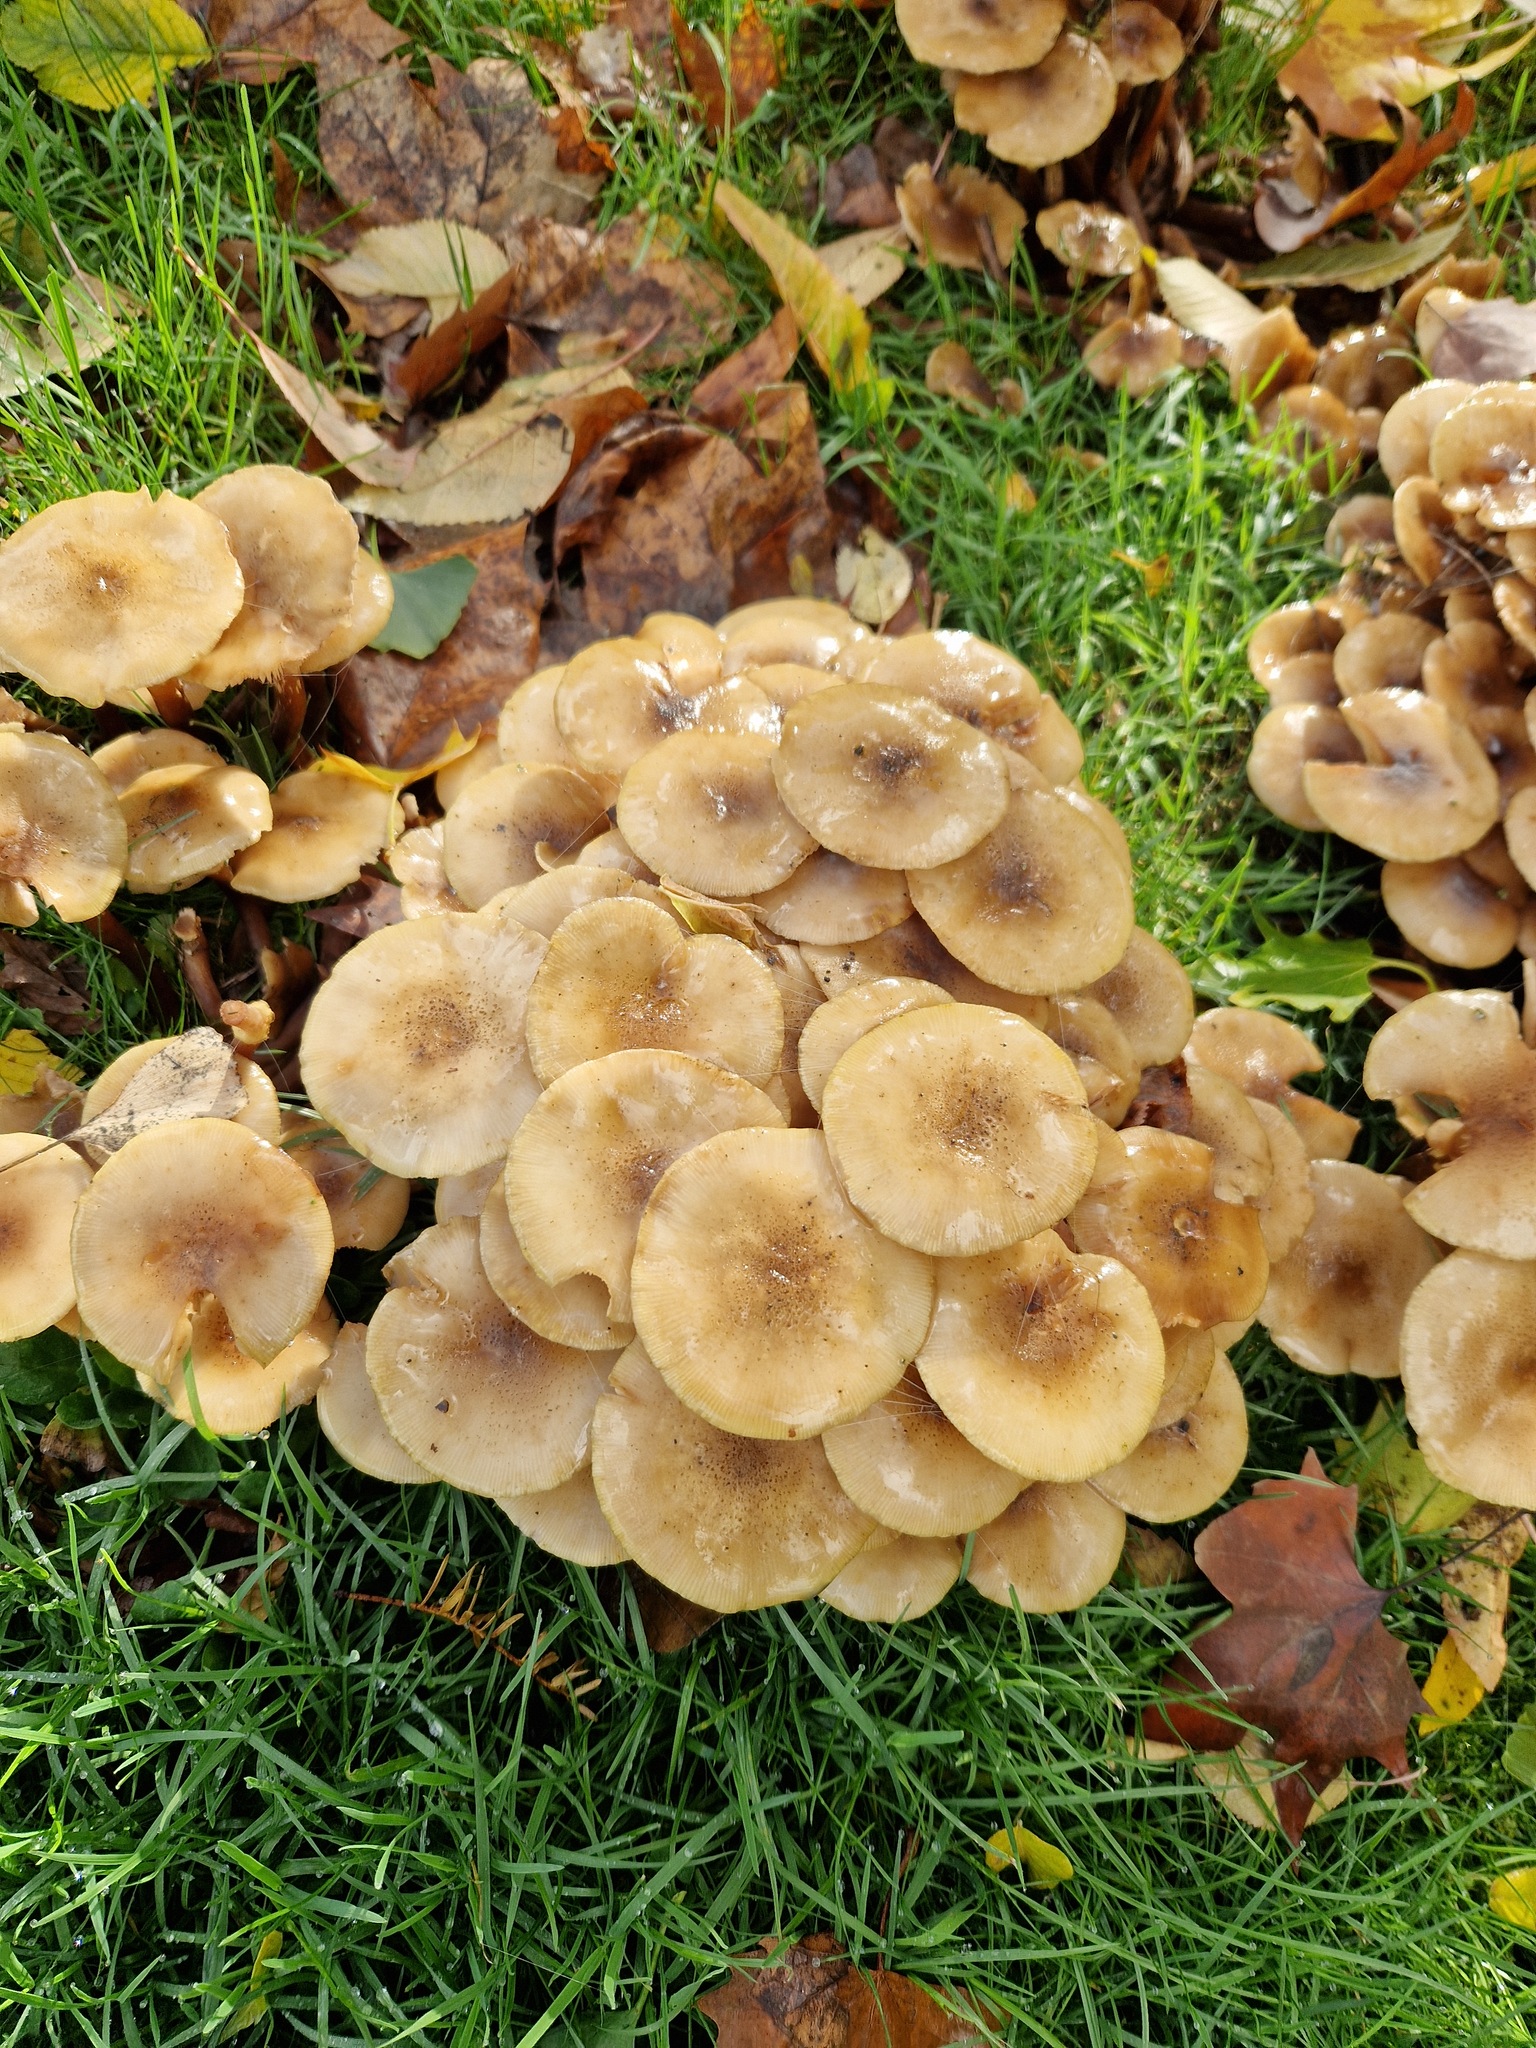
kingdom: Fungi
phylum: Basidiomycota
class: Agaricomycetes
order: Agaricales
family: Physalacriaceae
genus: Armillaria
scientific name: Armillaria mellea
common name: Honey fungus
